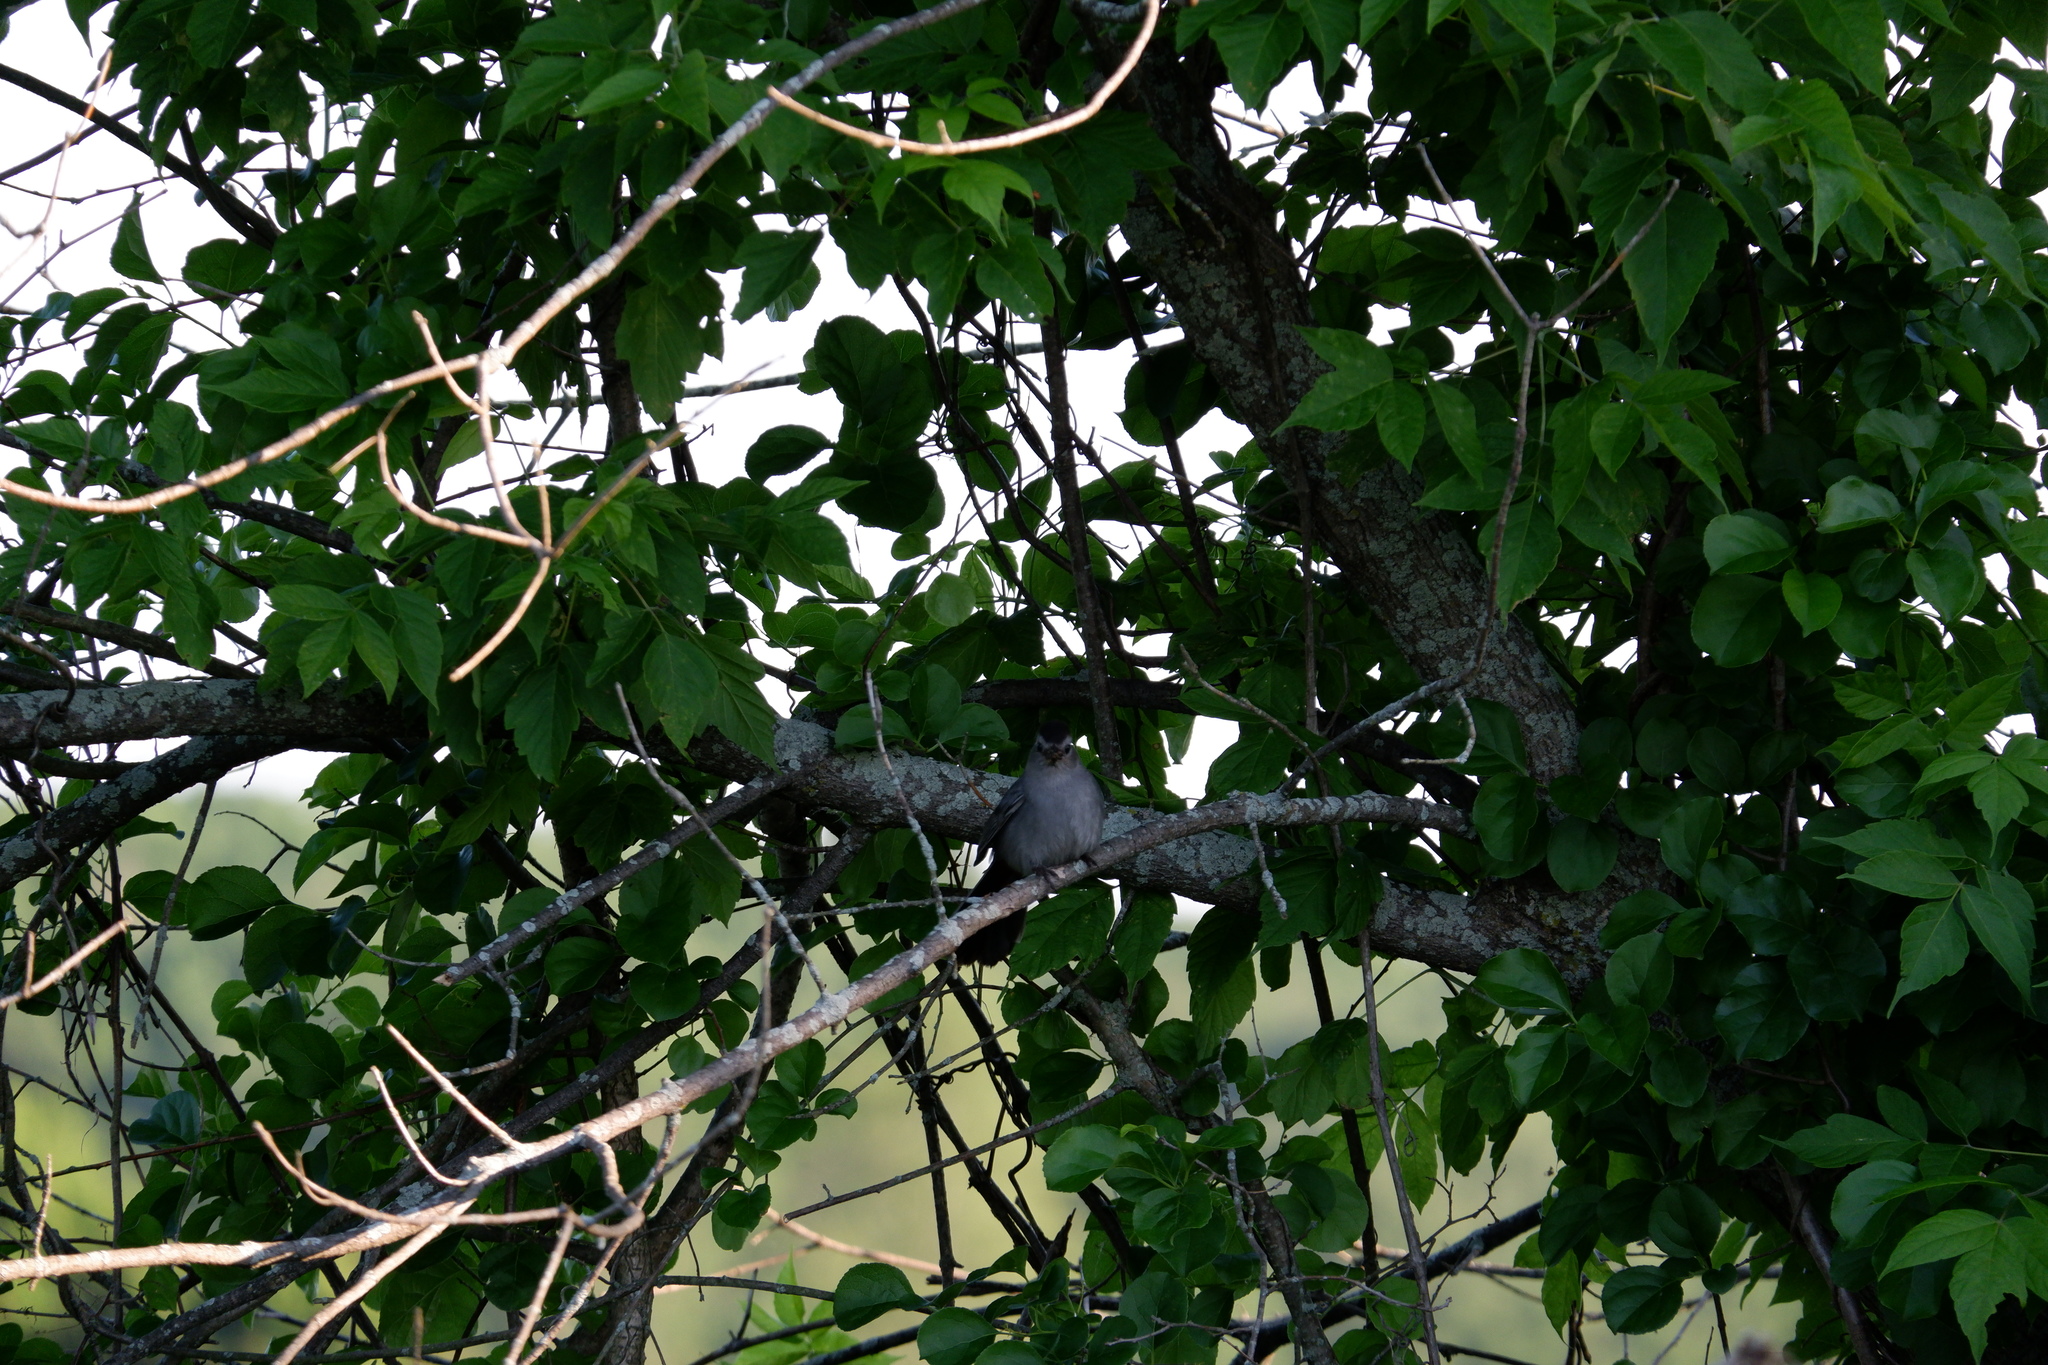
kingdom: Animalia
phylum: Chordata
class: Aves
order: Passeriformes
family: Mimidae
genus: Dumetella
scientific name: Dumetella carolinensis
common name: Gray catbird
